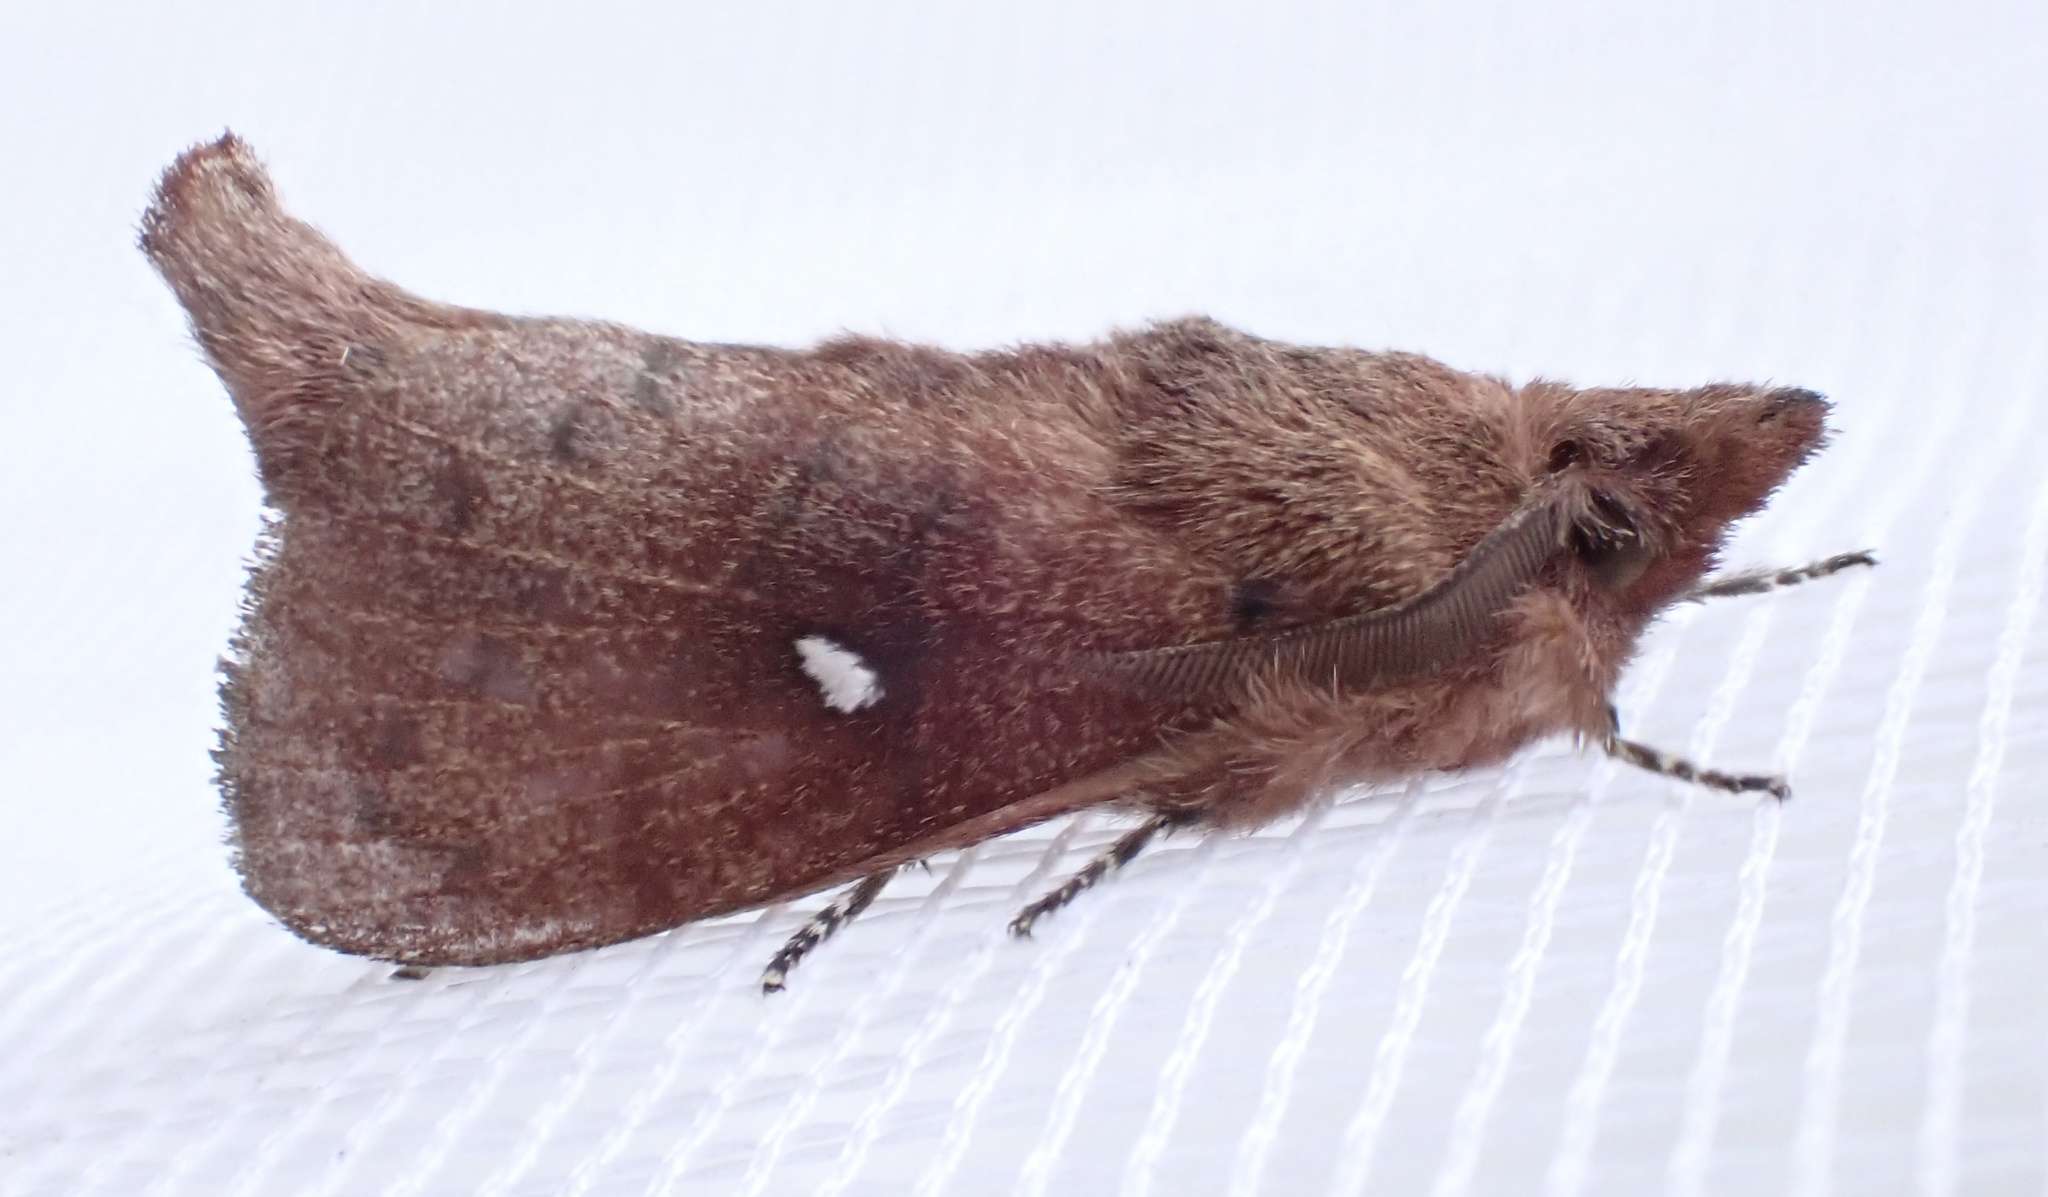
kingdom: Animalia
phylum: Arthropoda
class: Insecta
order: Lepidoptera
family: Lasiocampidae
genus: Opsirhina
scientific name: Opsirhina lechriodes
